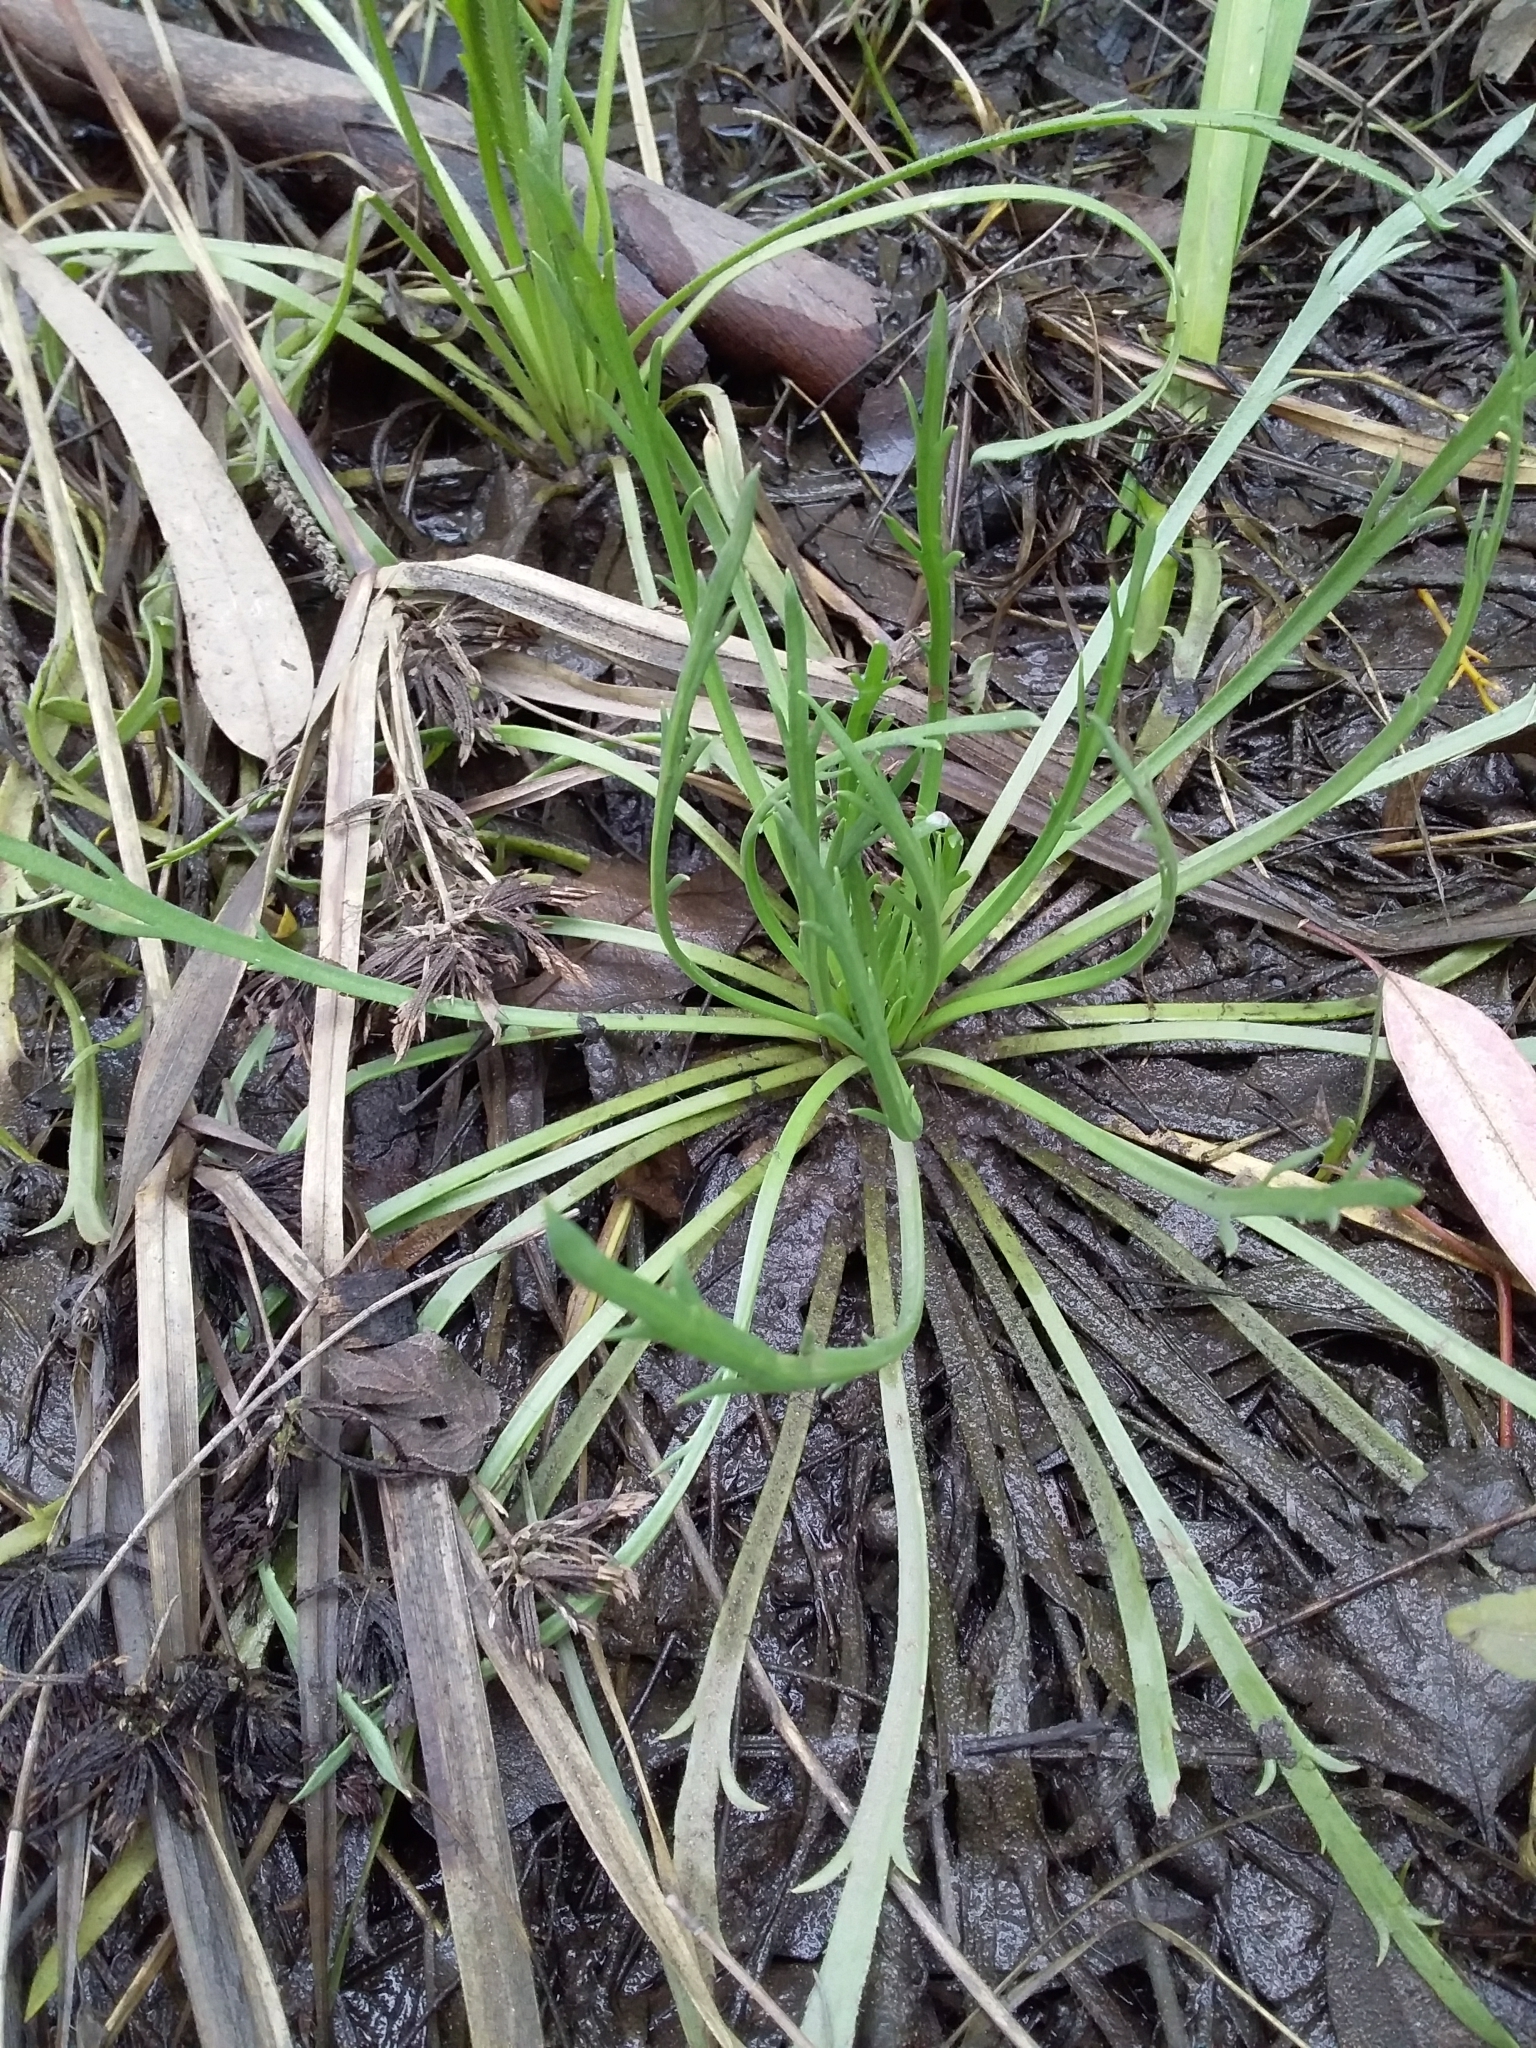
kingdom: Plantae
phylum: Tracheophyta
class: Magnoliopsida
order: Lamiales
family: Plantaginaceae
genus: Plantago
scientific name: Plantago coronopus
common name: Buck's-horn plantain
